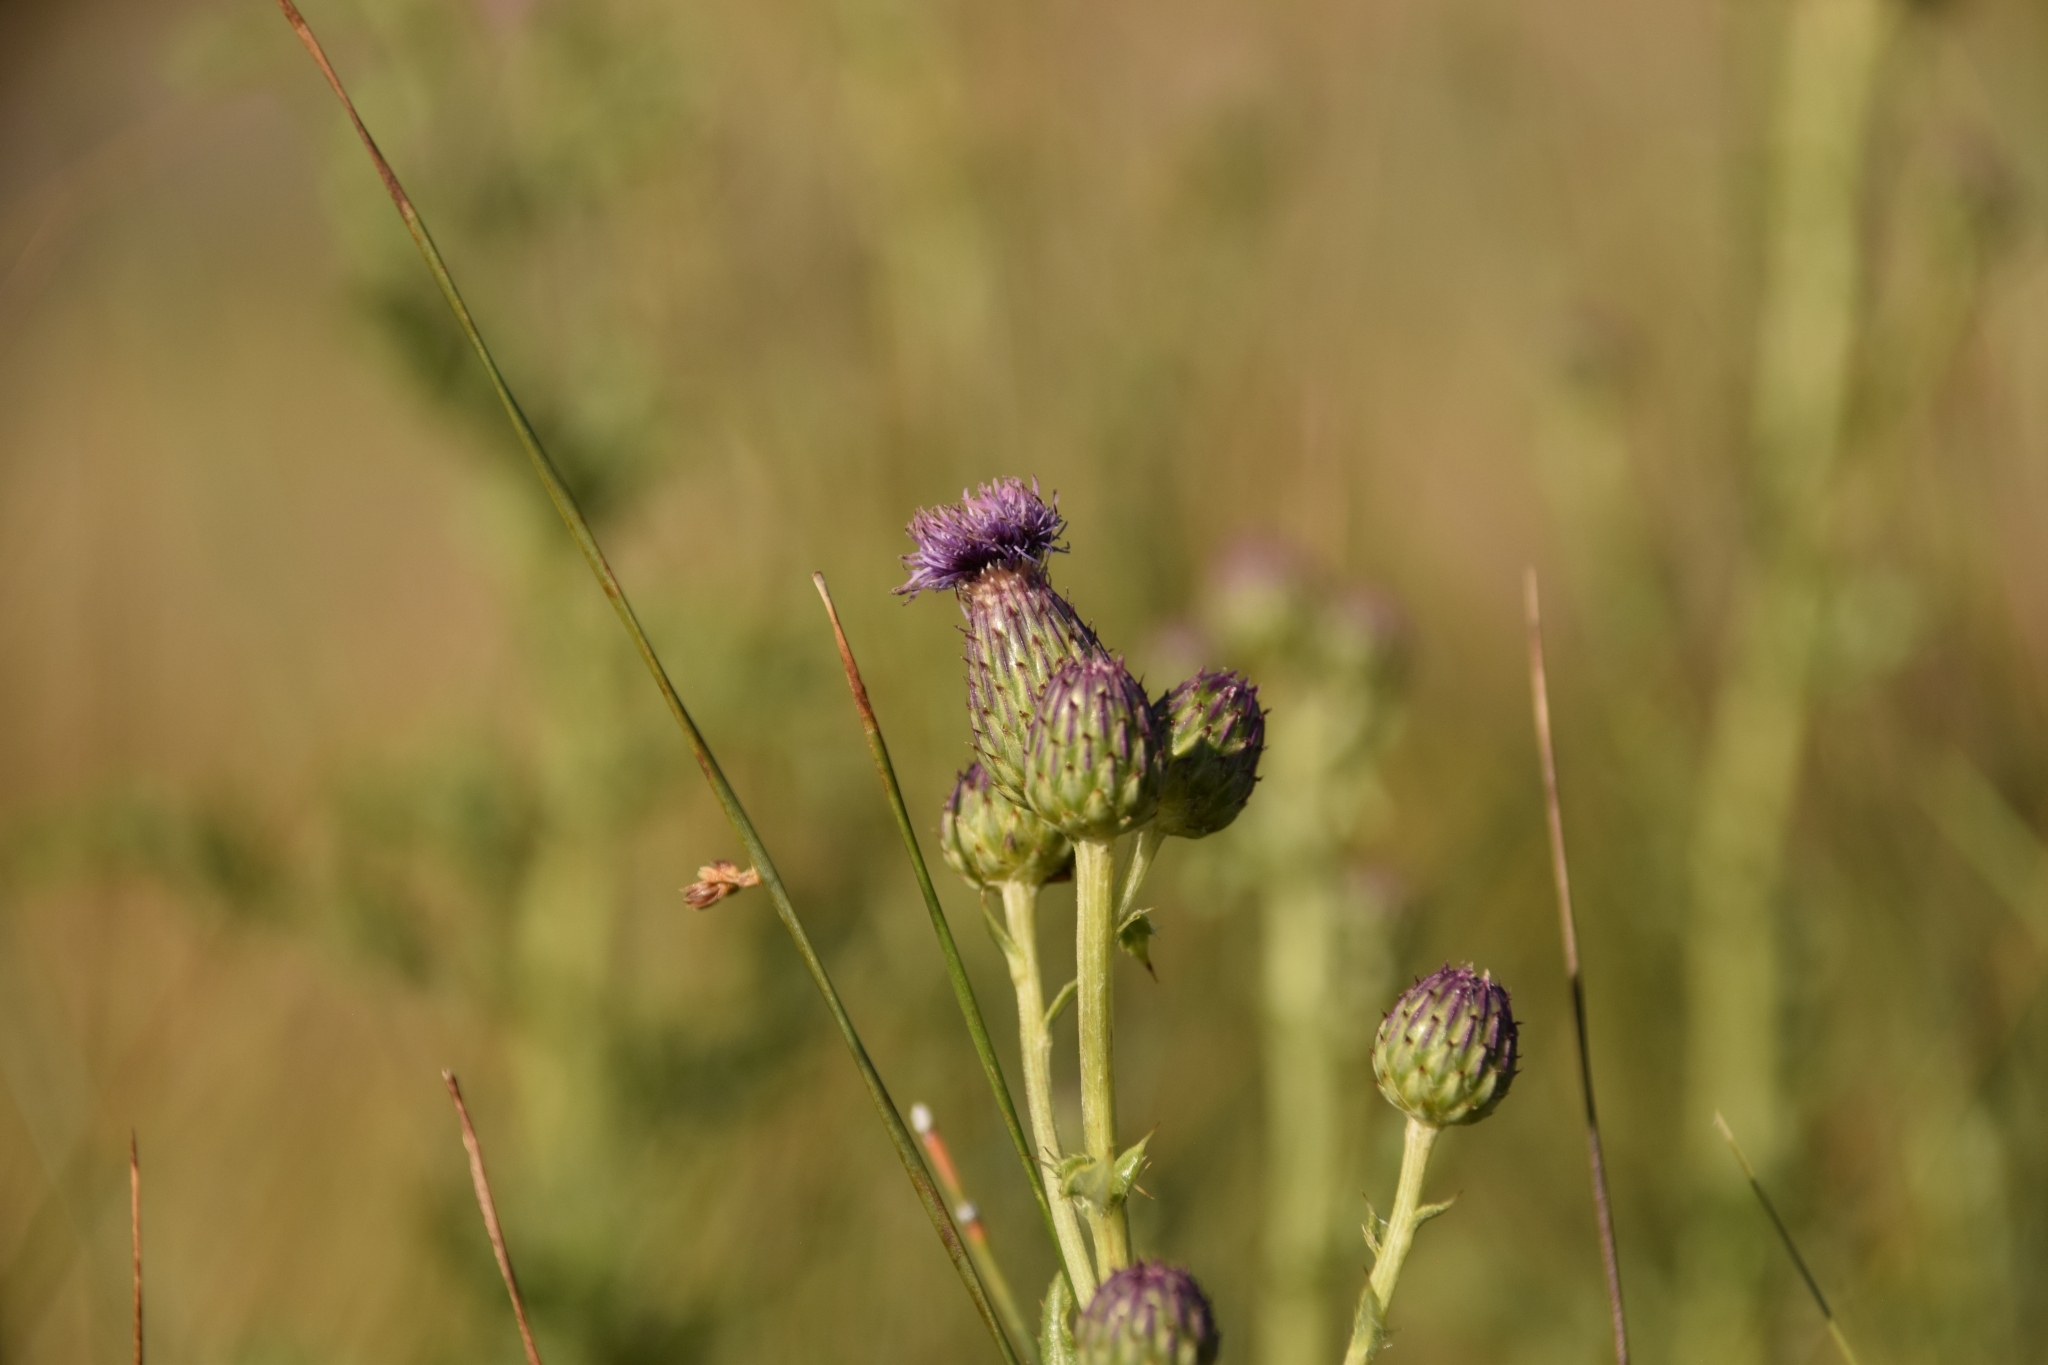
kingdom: Plantae
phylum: Tracheophyta
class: Magnoliopsida
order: Asterales
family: Asteraceae
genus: Cirsium
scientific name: Cirsium arvense
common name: Creeping thistle
